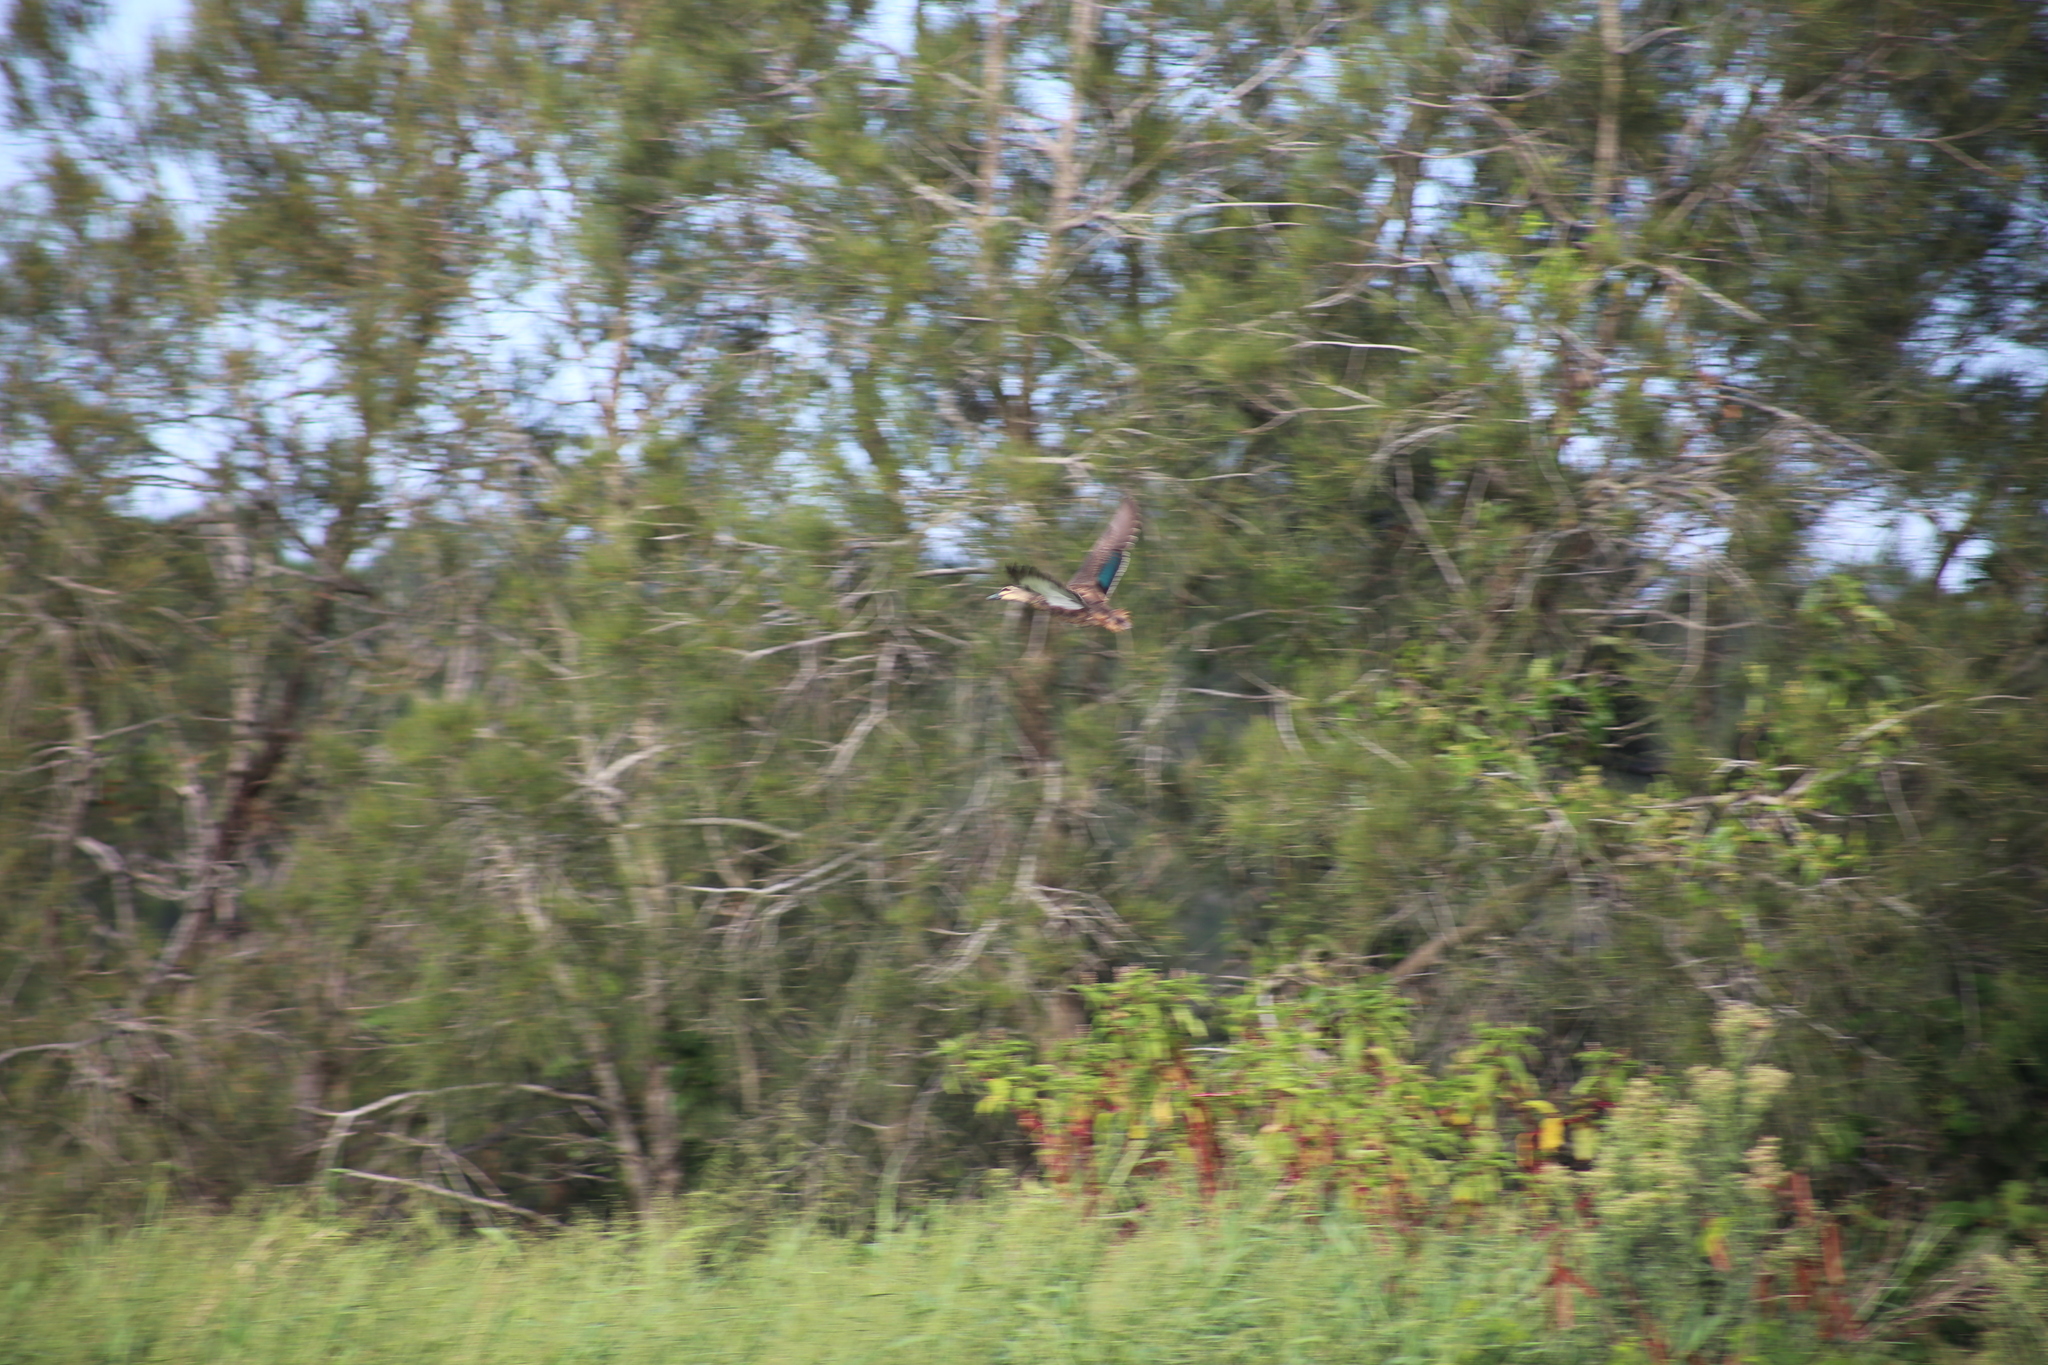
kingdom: Animalia
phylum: Chordata
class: Aves
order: Anseriformes
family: Anatidae
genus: Anas
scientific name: Anas superciliosa
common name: Pacific black duck
